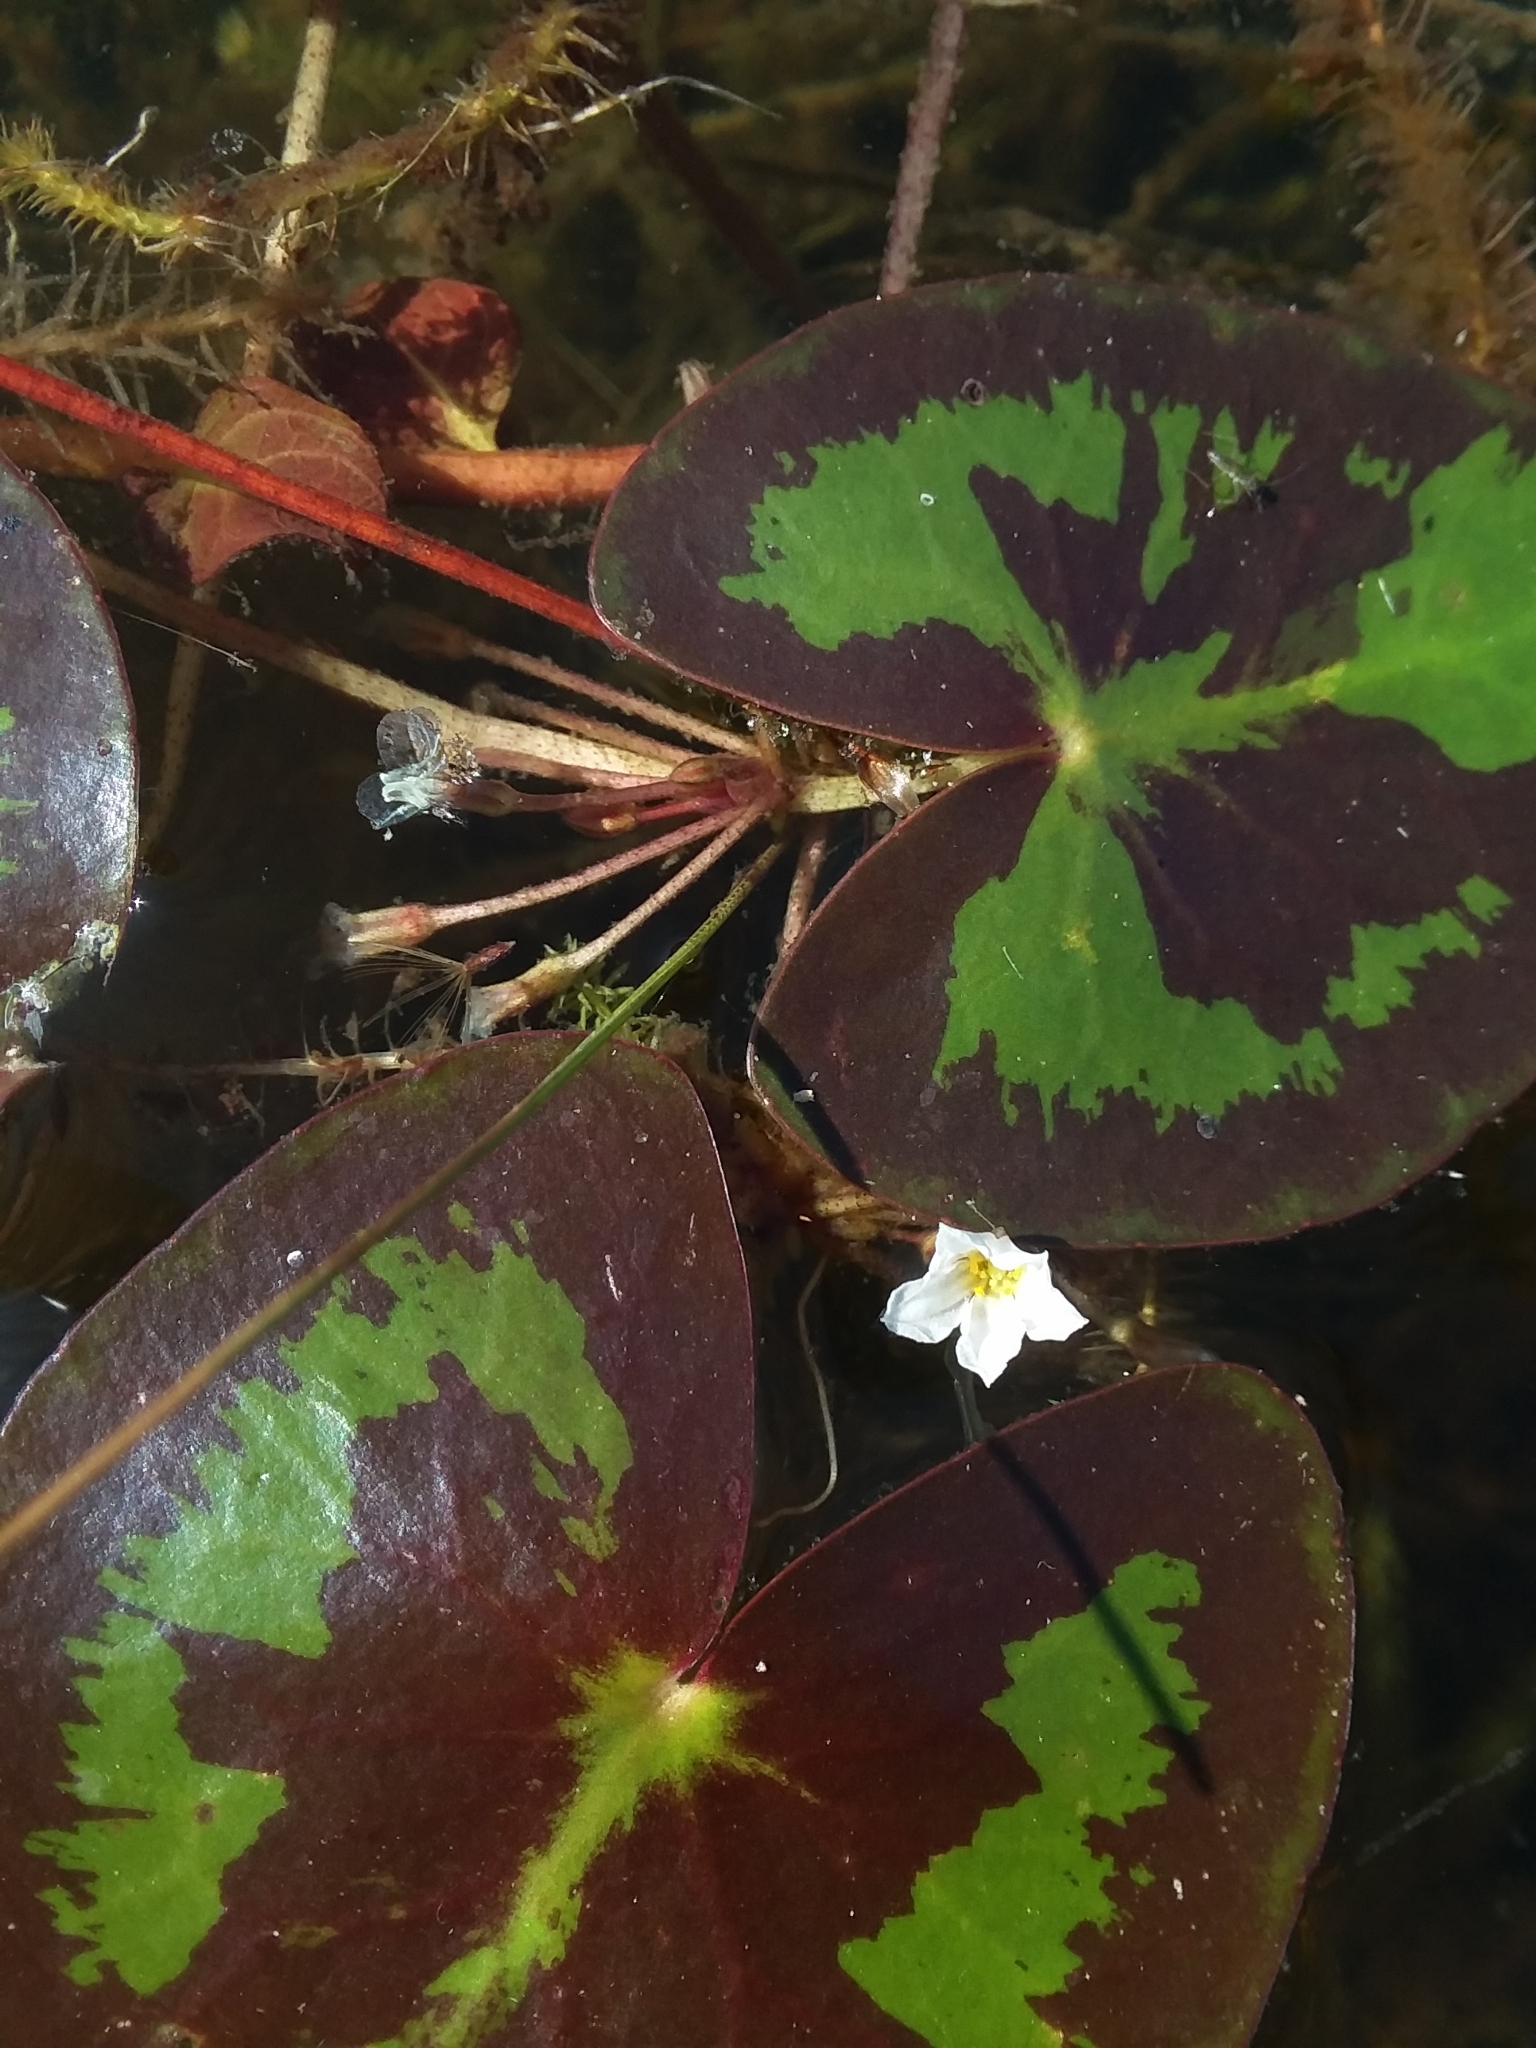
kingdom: Plantae
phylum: Tracheophyta
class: Magnoliopsida
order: Asterales
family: Menyanthaceae
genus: Nymphoides
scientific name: Nymphoides cordata
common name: Eight-angled floatingheart
